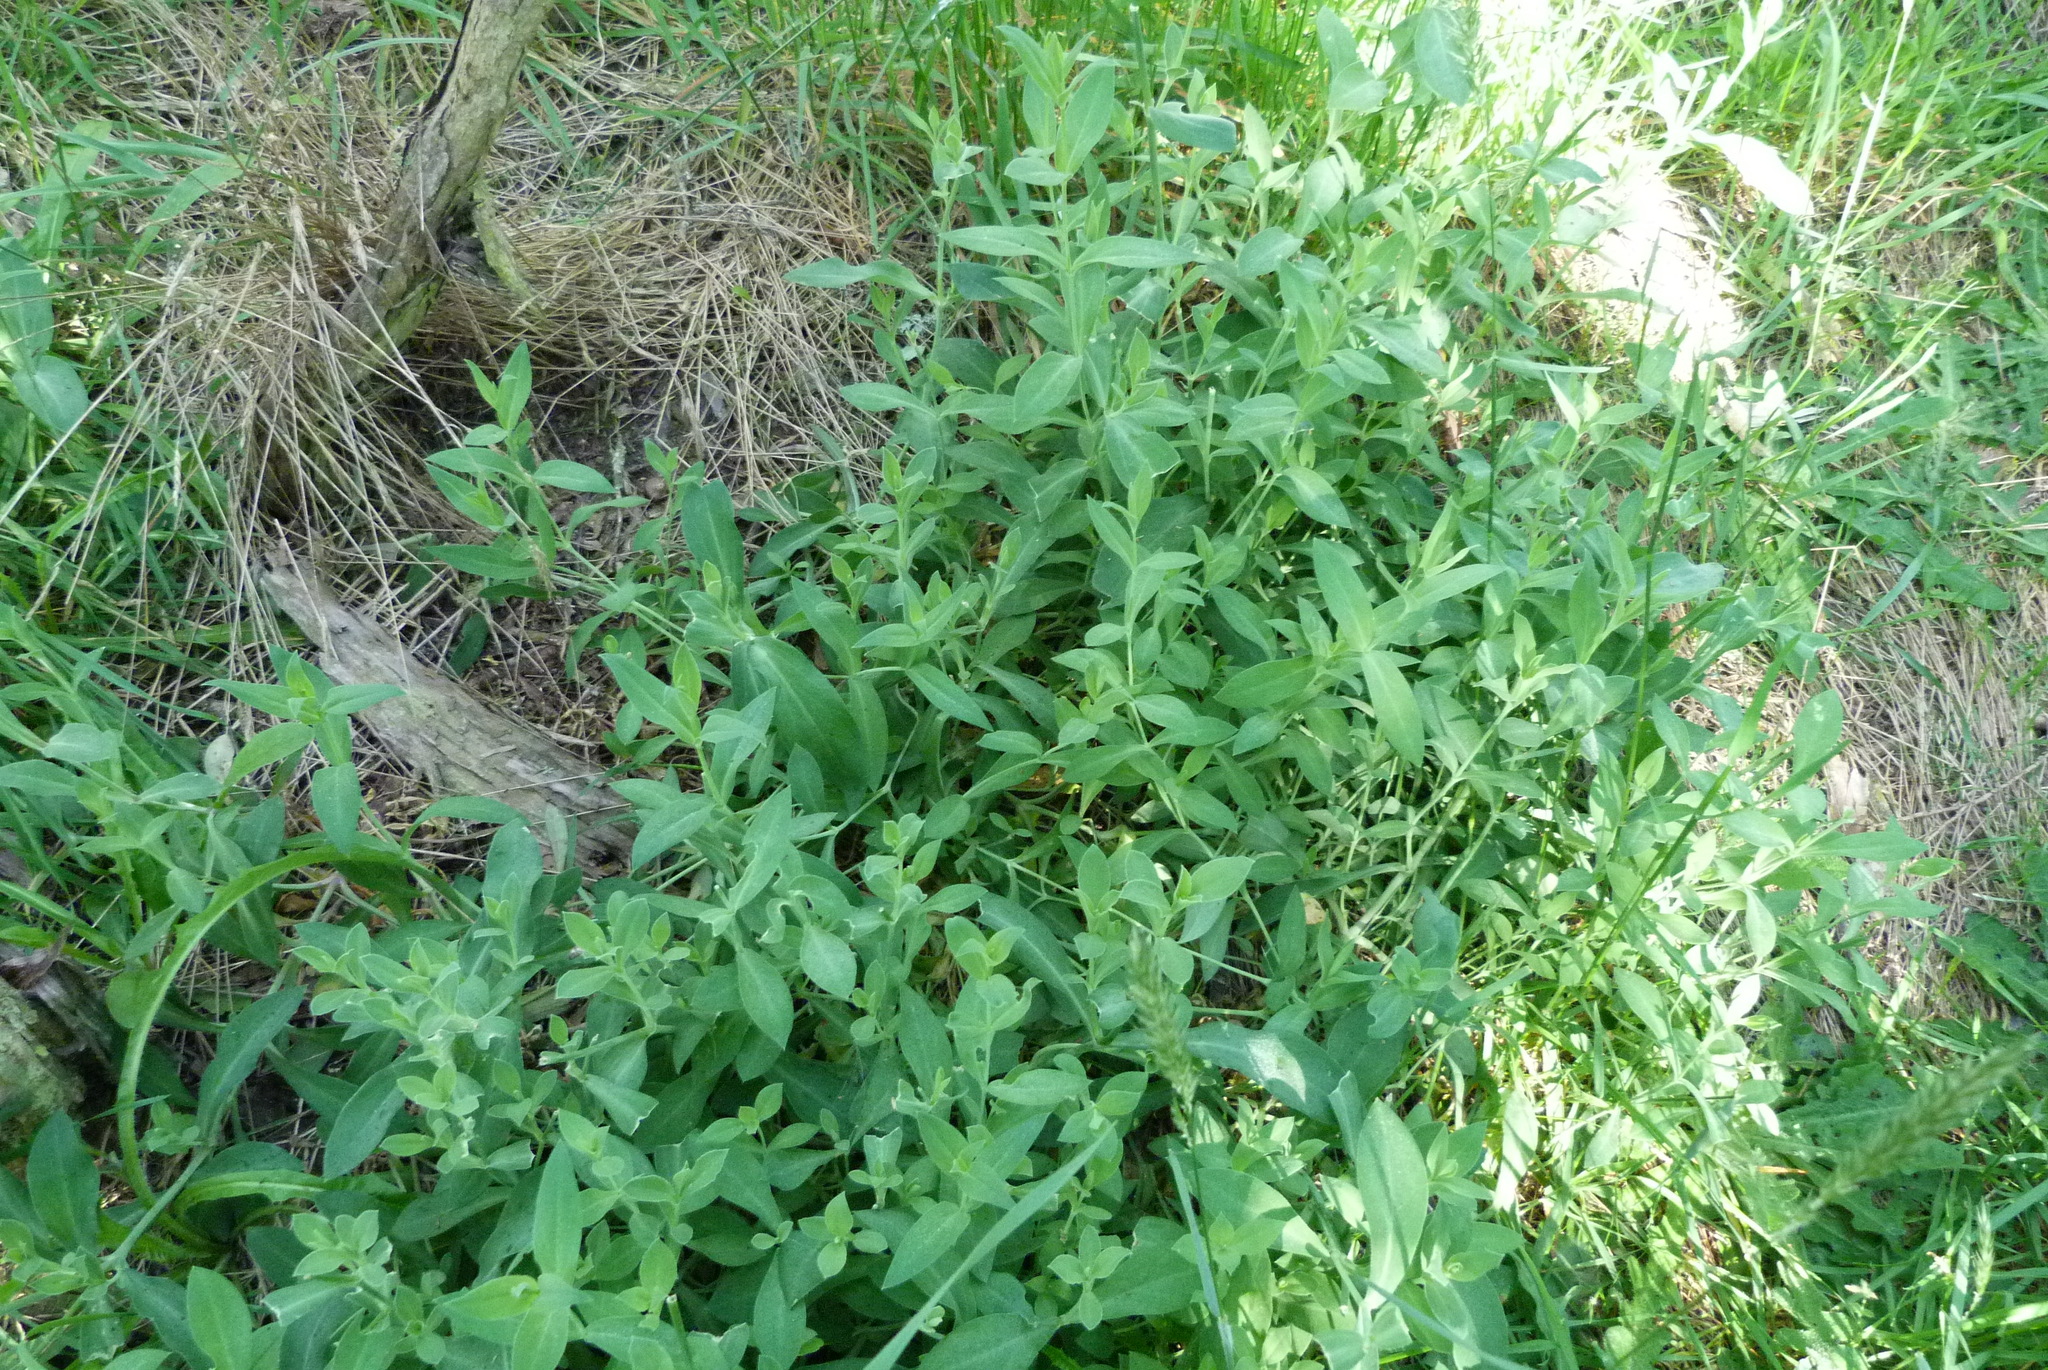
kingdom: Plantae
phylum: Tracheophyta
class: Magnoliopsida
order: Caryophyllales
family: Caryophyllaceae
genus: Silene
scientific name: Silene vulgaris
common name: Bladder campion
